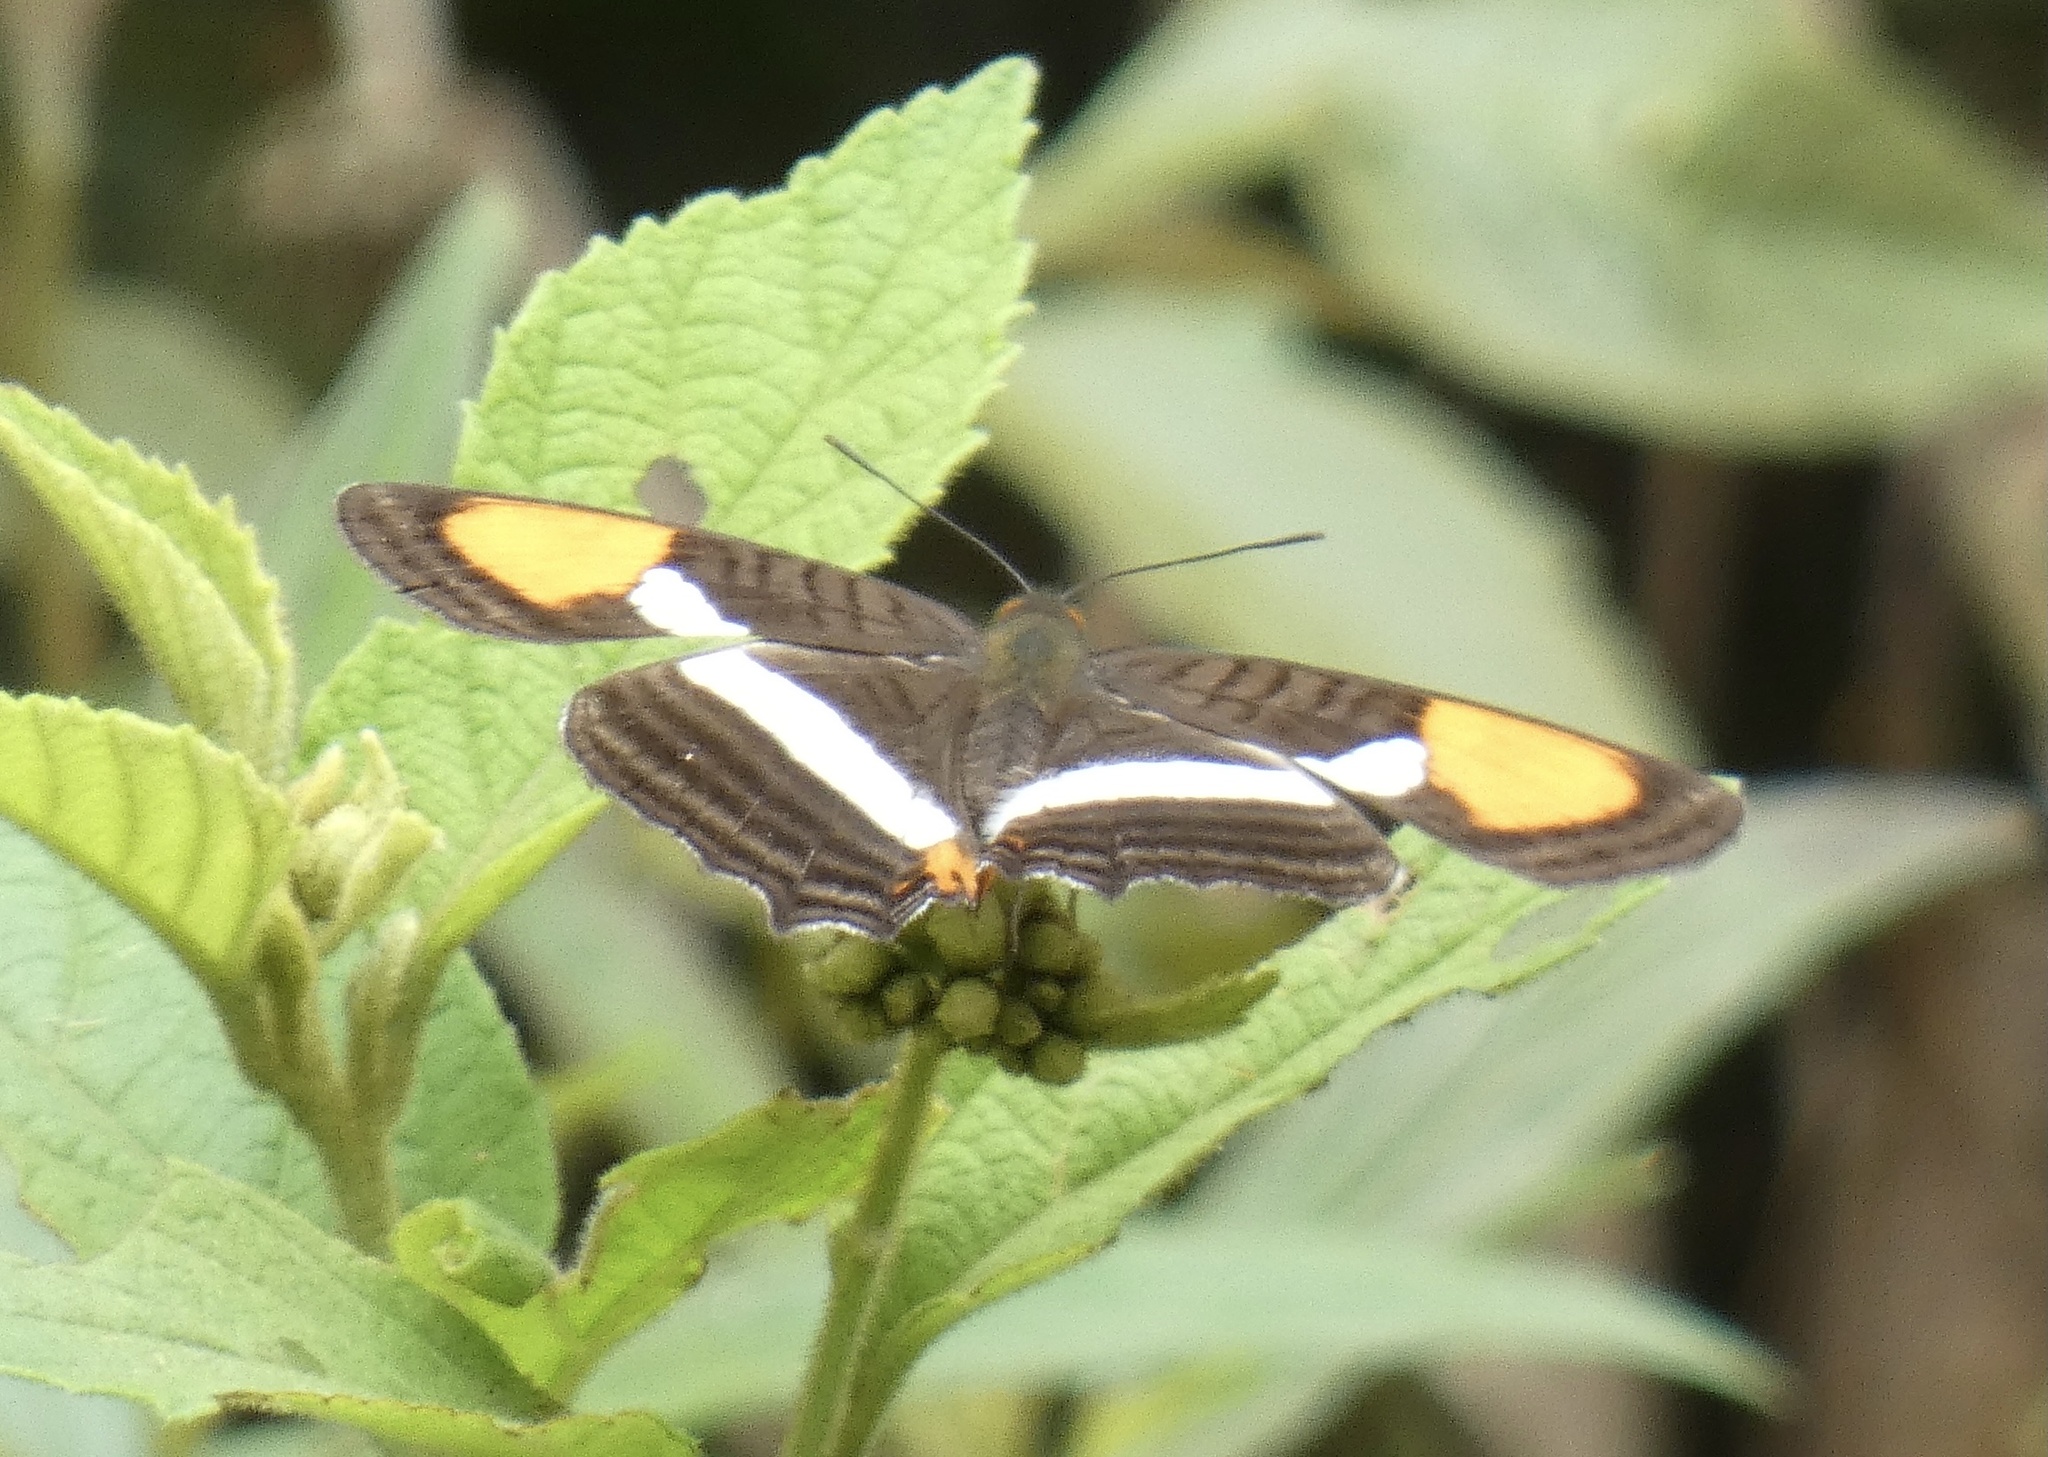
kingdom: Animalia
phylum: Arthropoda
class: Insecta
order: Lepidoptera
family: Nymphalidae
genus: Limenitis
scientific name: Limenitis syma
